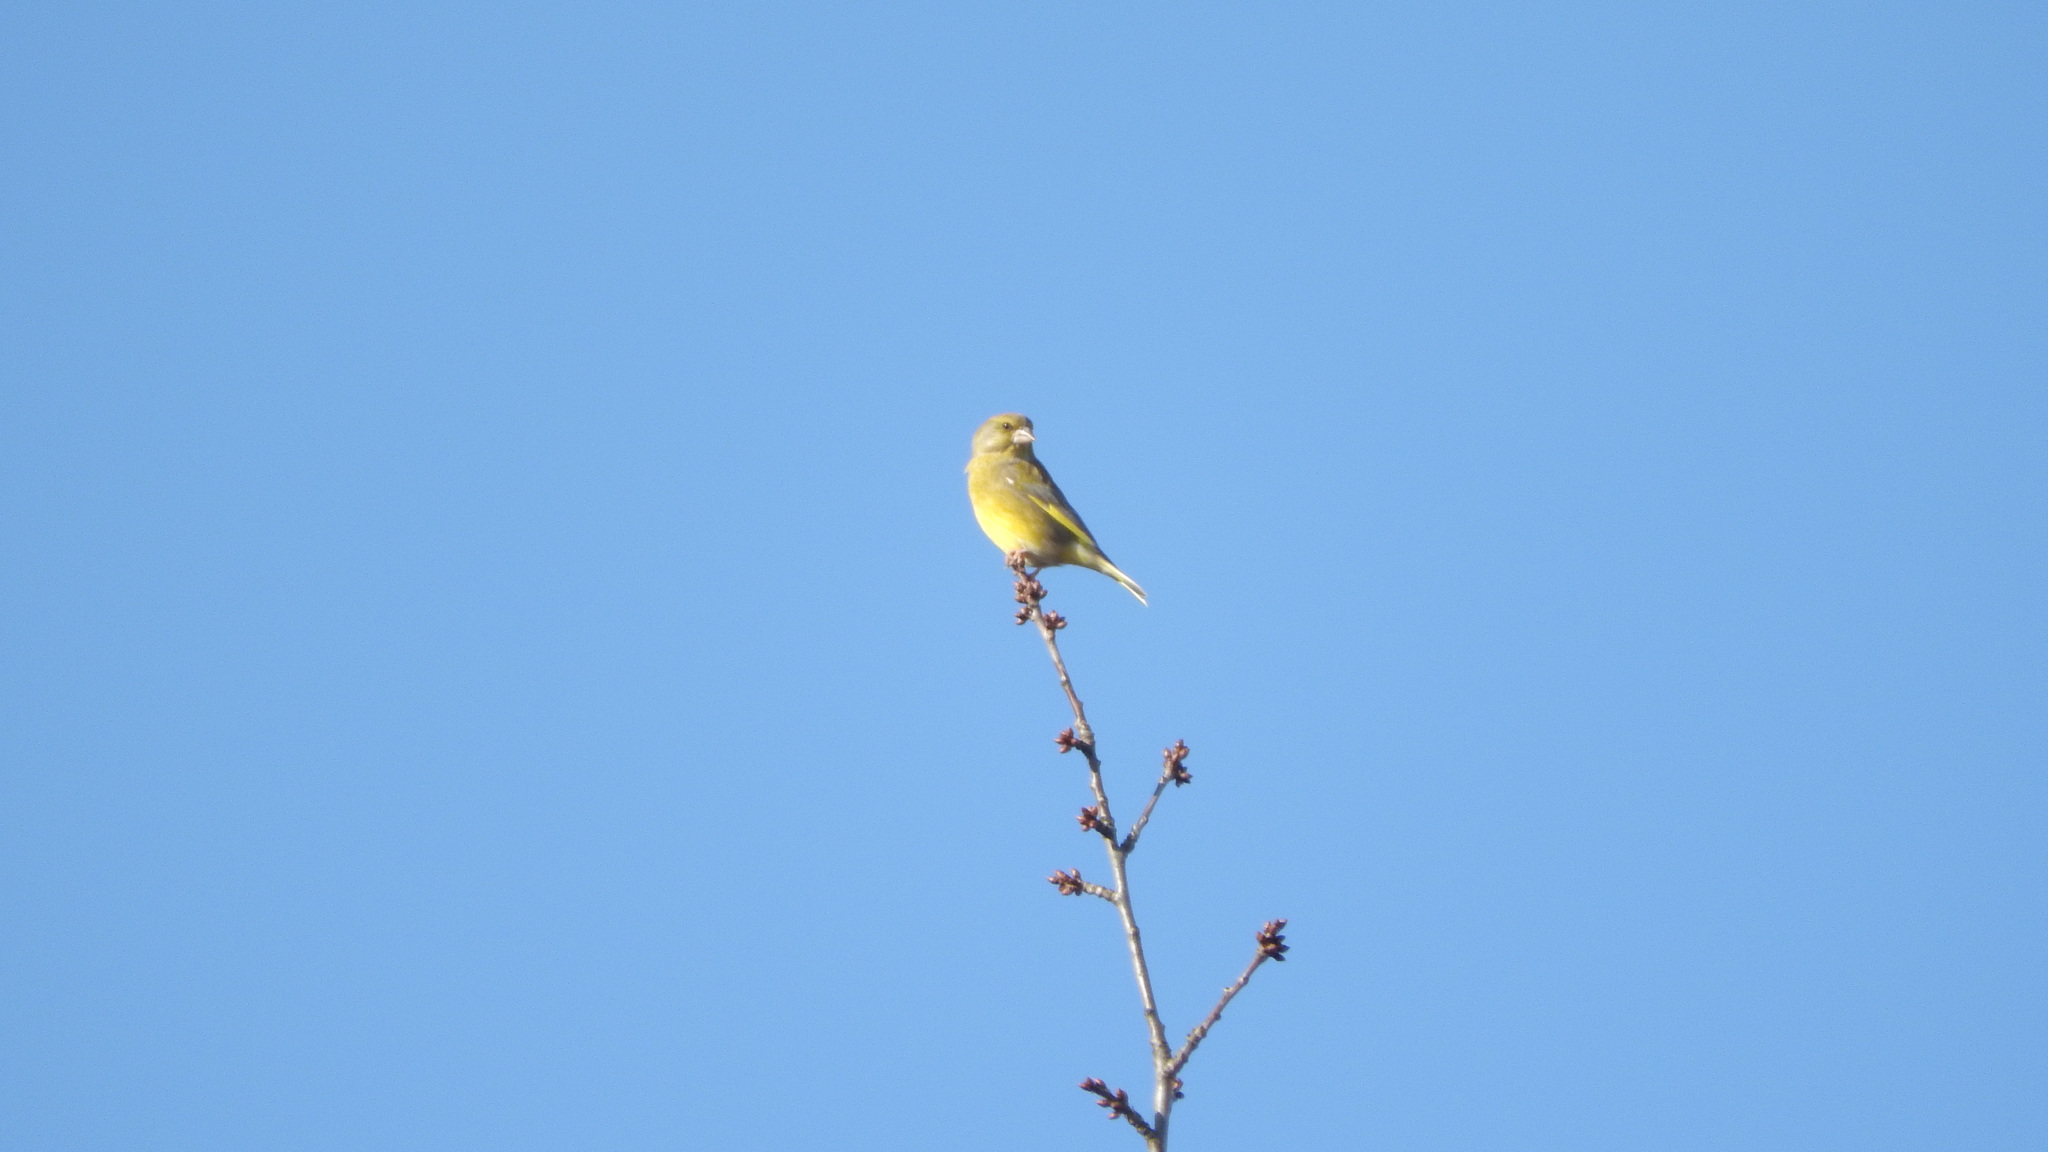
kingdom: Plantae
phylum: Tracheophyta
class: Liliopsida
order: Poales
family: Poaceae
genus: Chloris
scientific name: Chloris chloris
